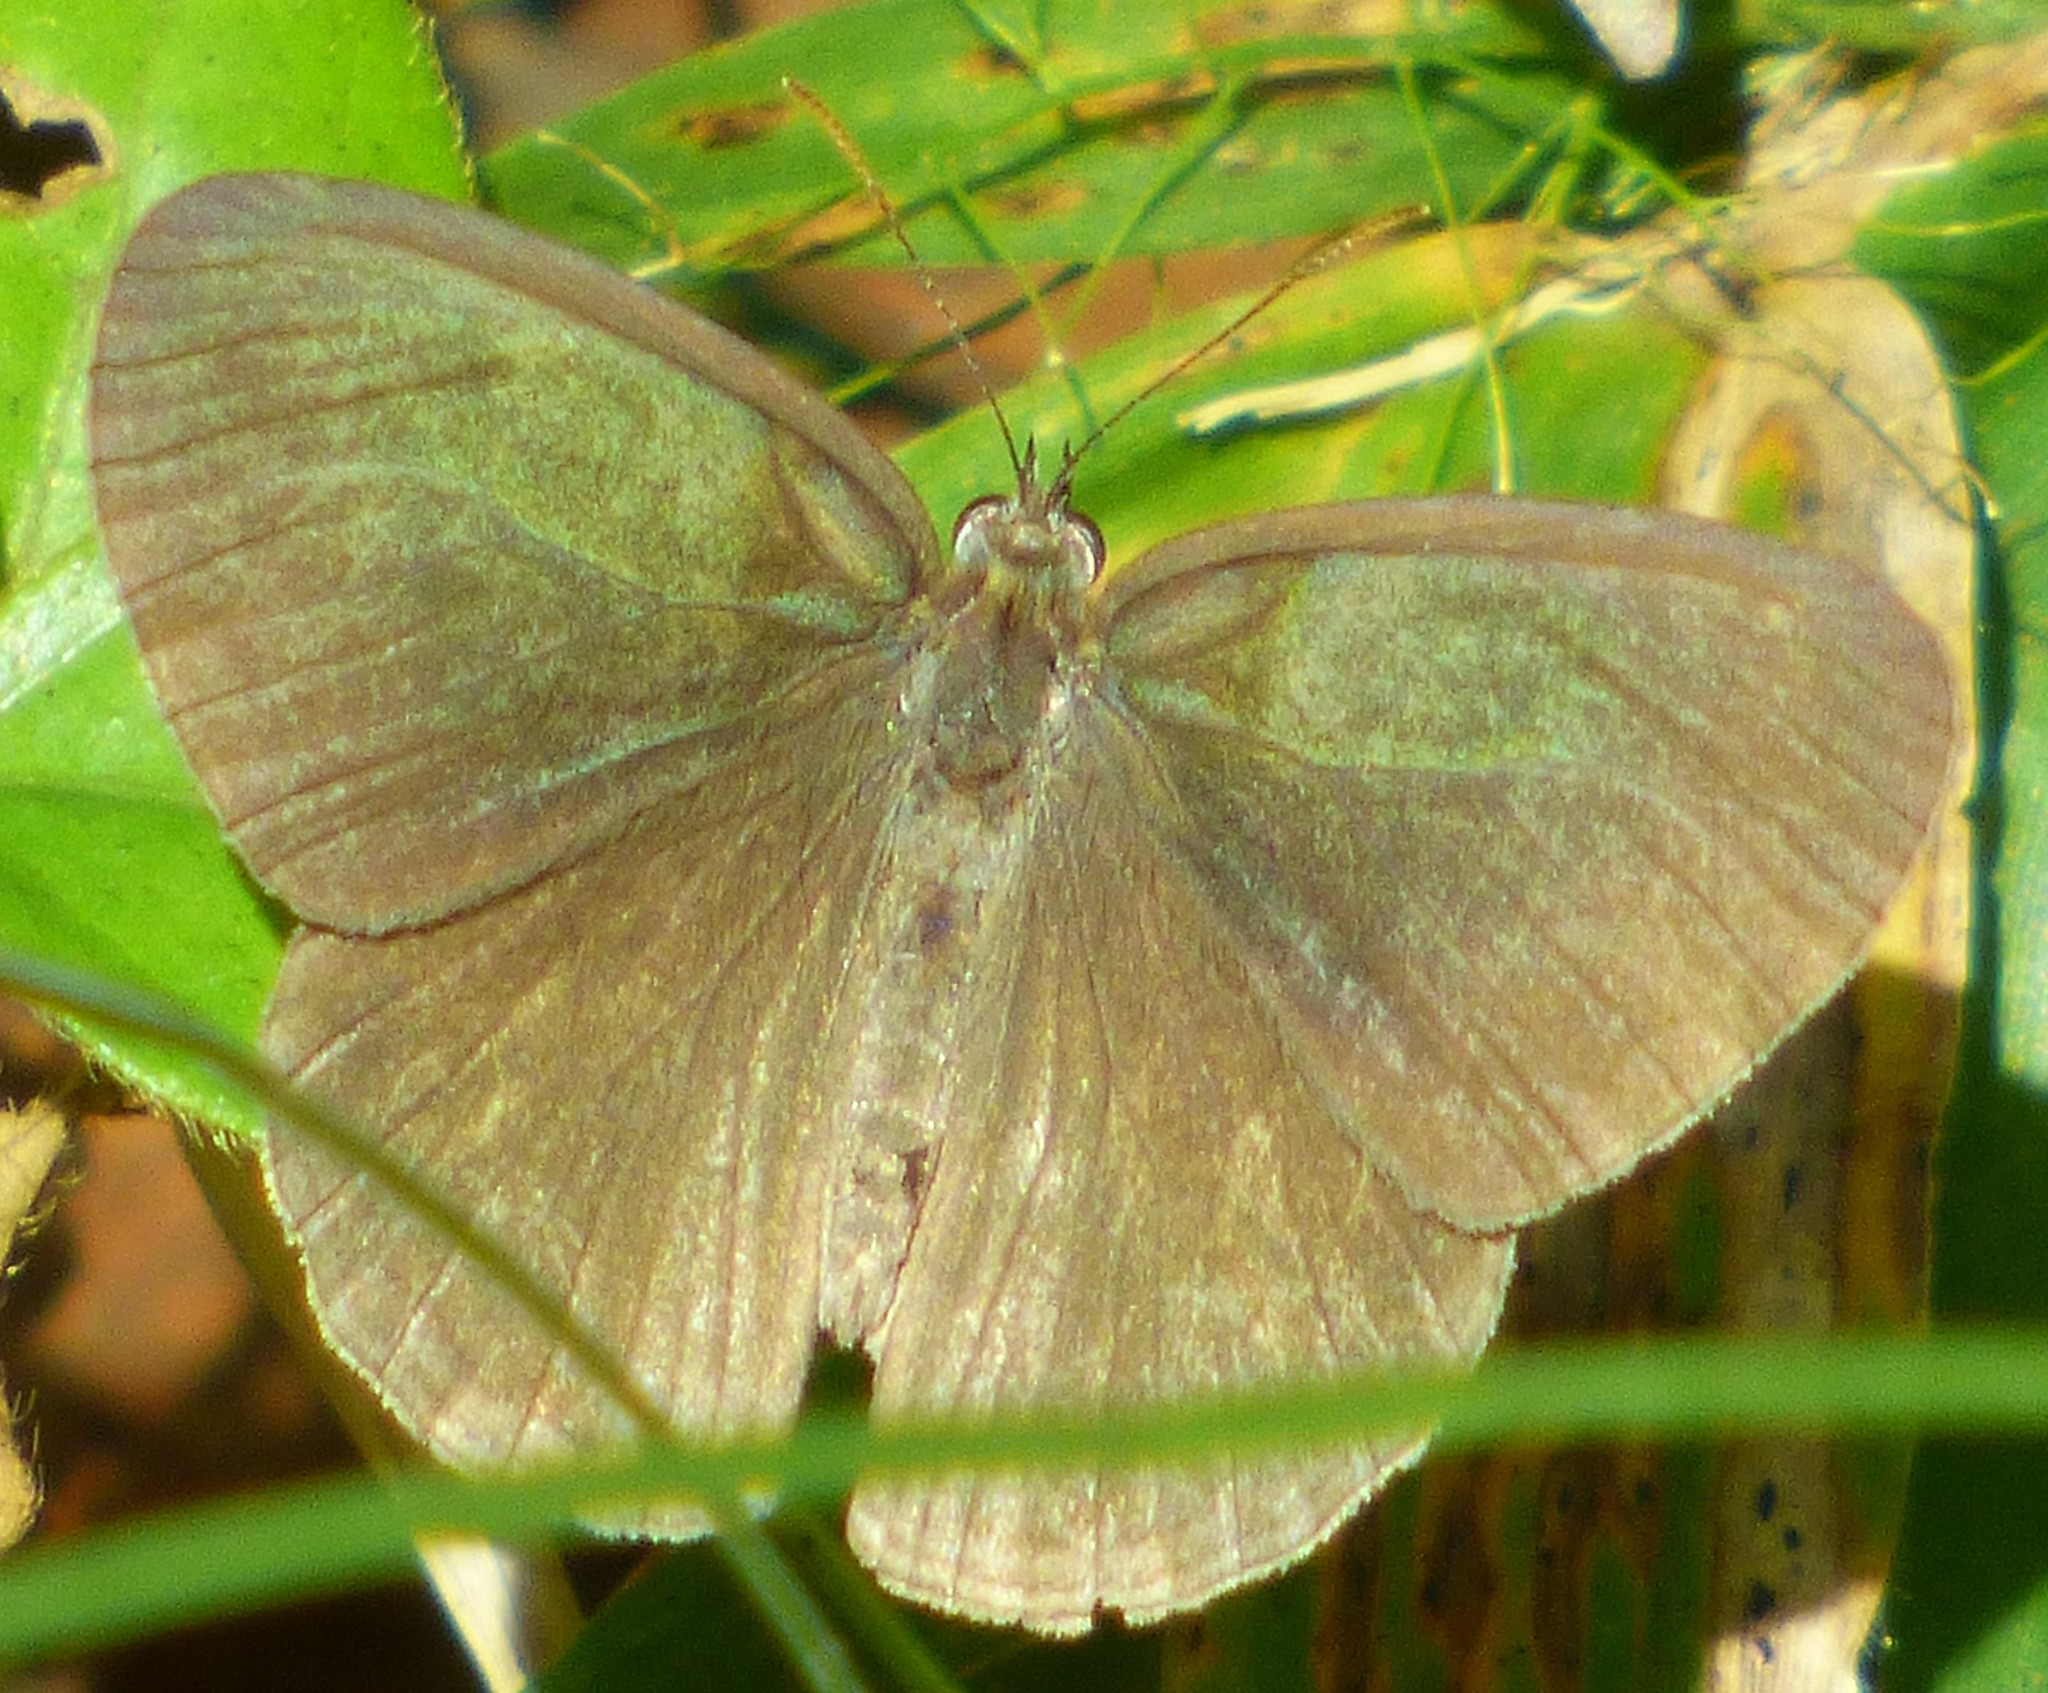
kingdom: Animalia
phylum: Arthropoda
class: Insecta
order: Lepidoptera
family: Nymphalidae
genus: Hermeuptychia
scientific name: Hermeuptychia hermes
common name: Hermes satyr
